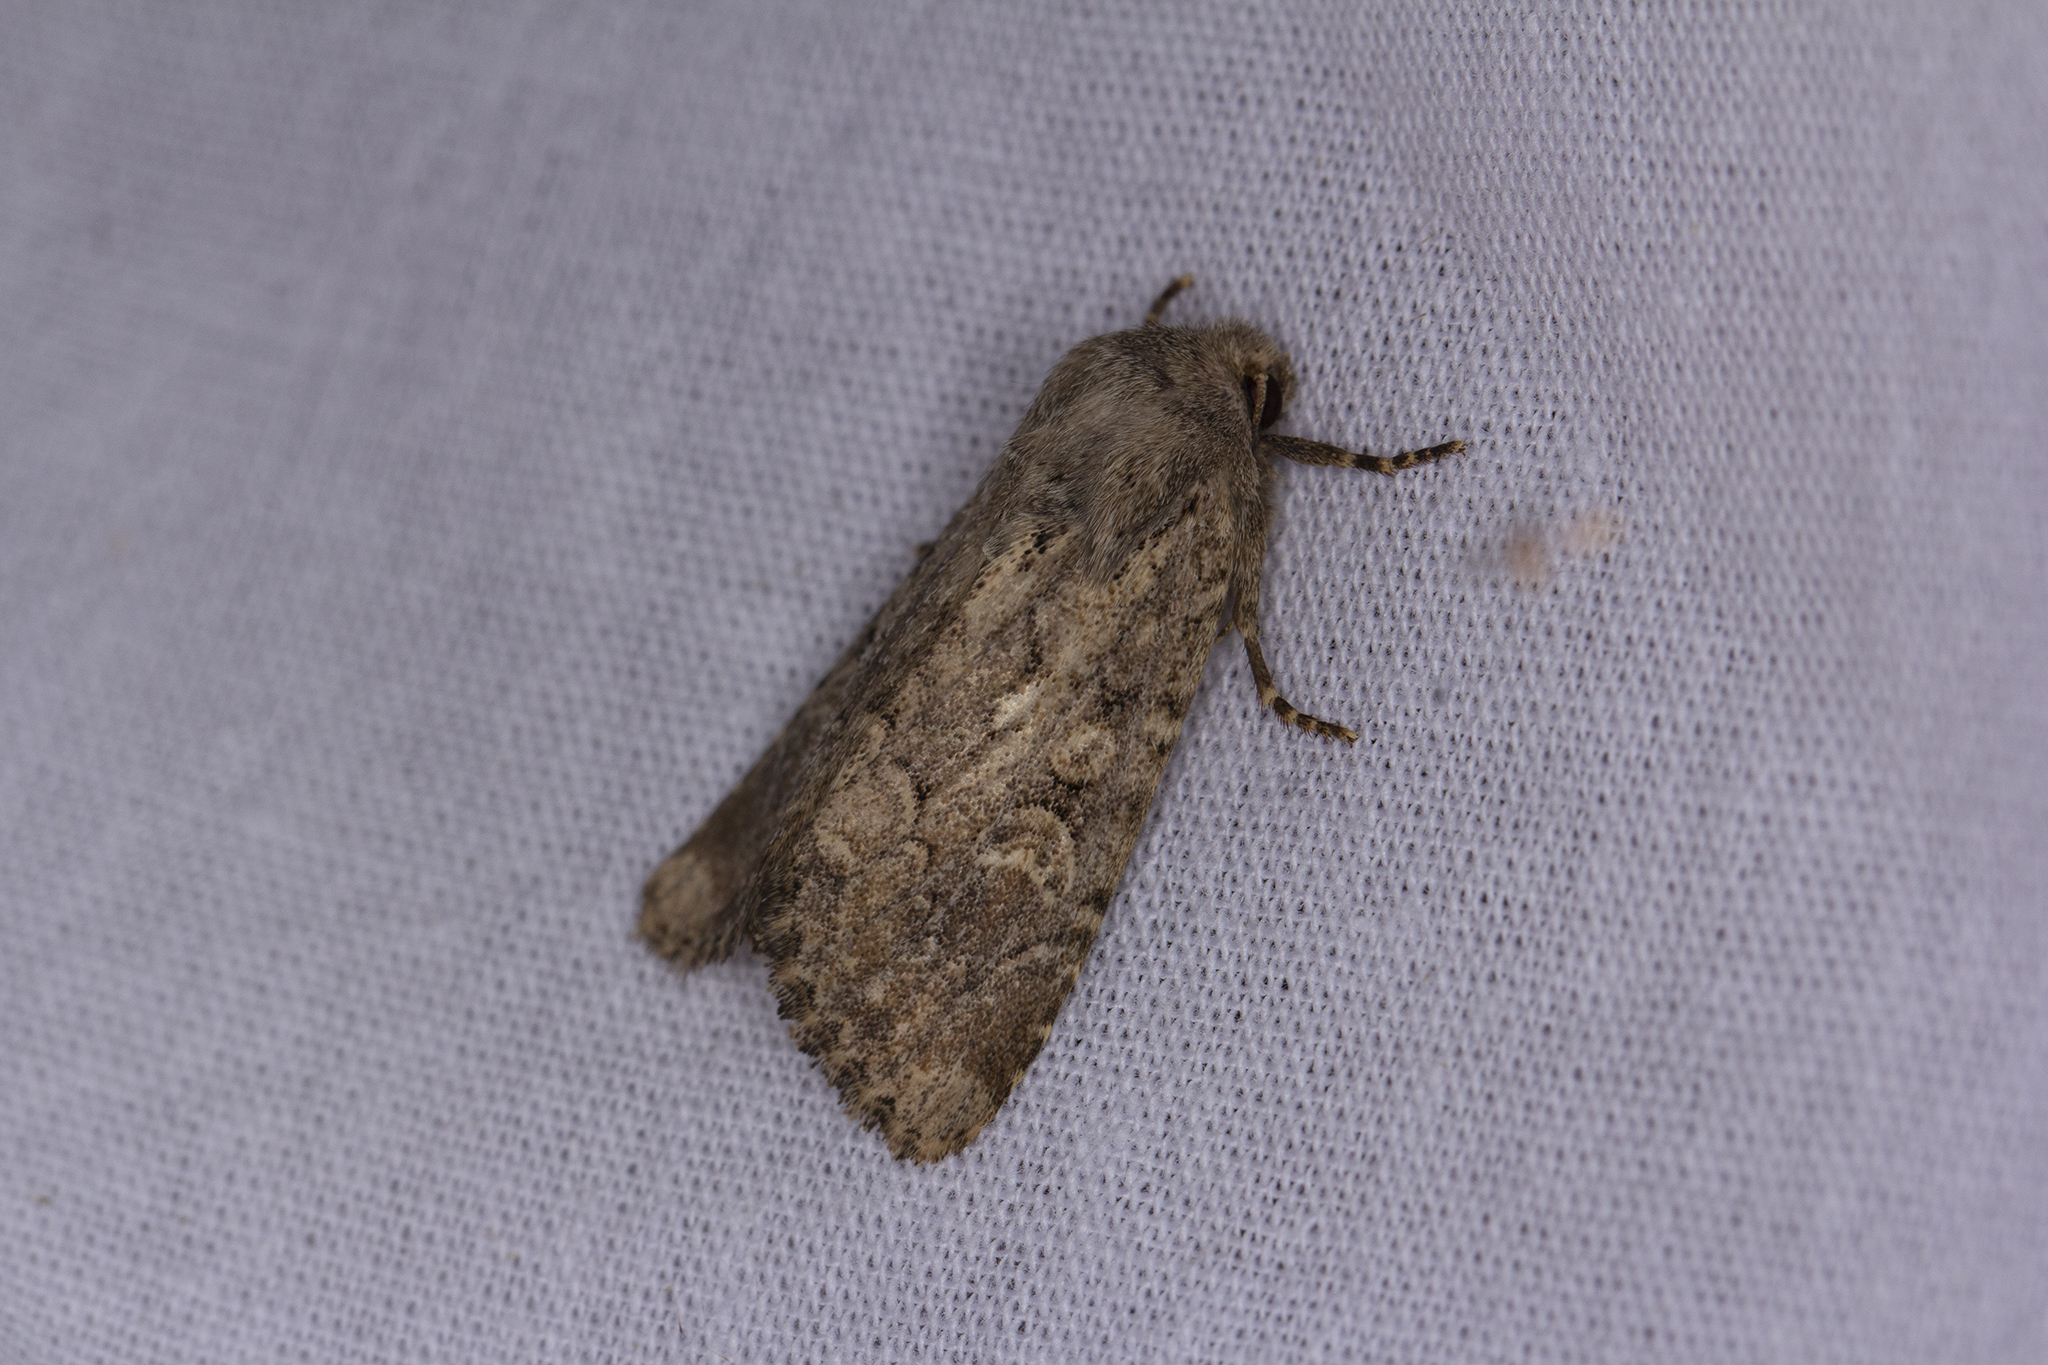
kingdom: Animalia
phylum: Arthropoda
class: Insecta
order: Lepidoptera
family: Noctuidae
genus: Luperina
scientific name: Luperina testacea
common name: Flounced rustic
